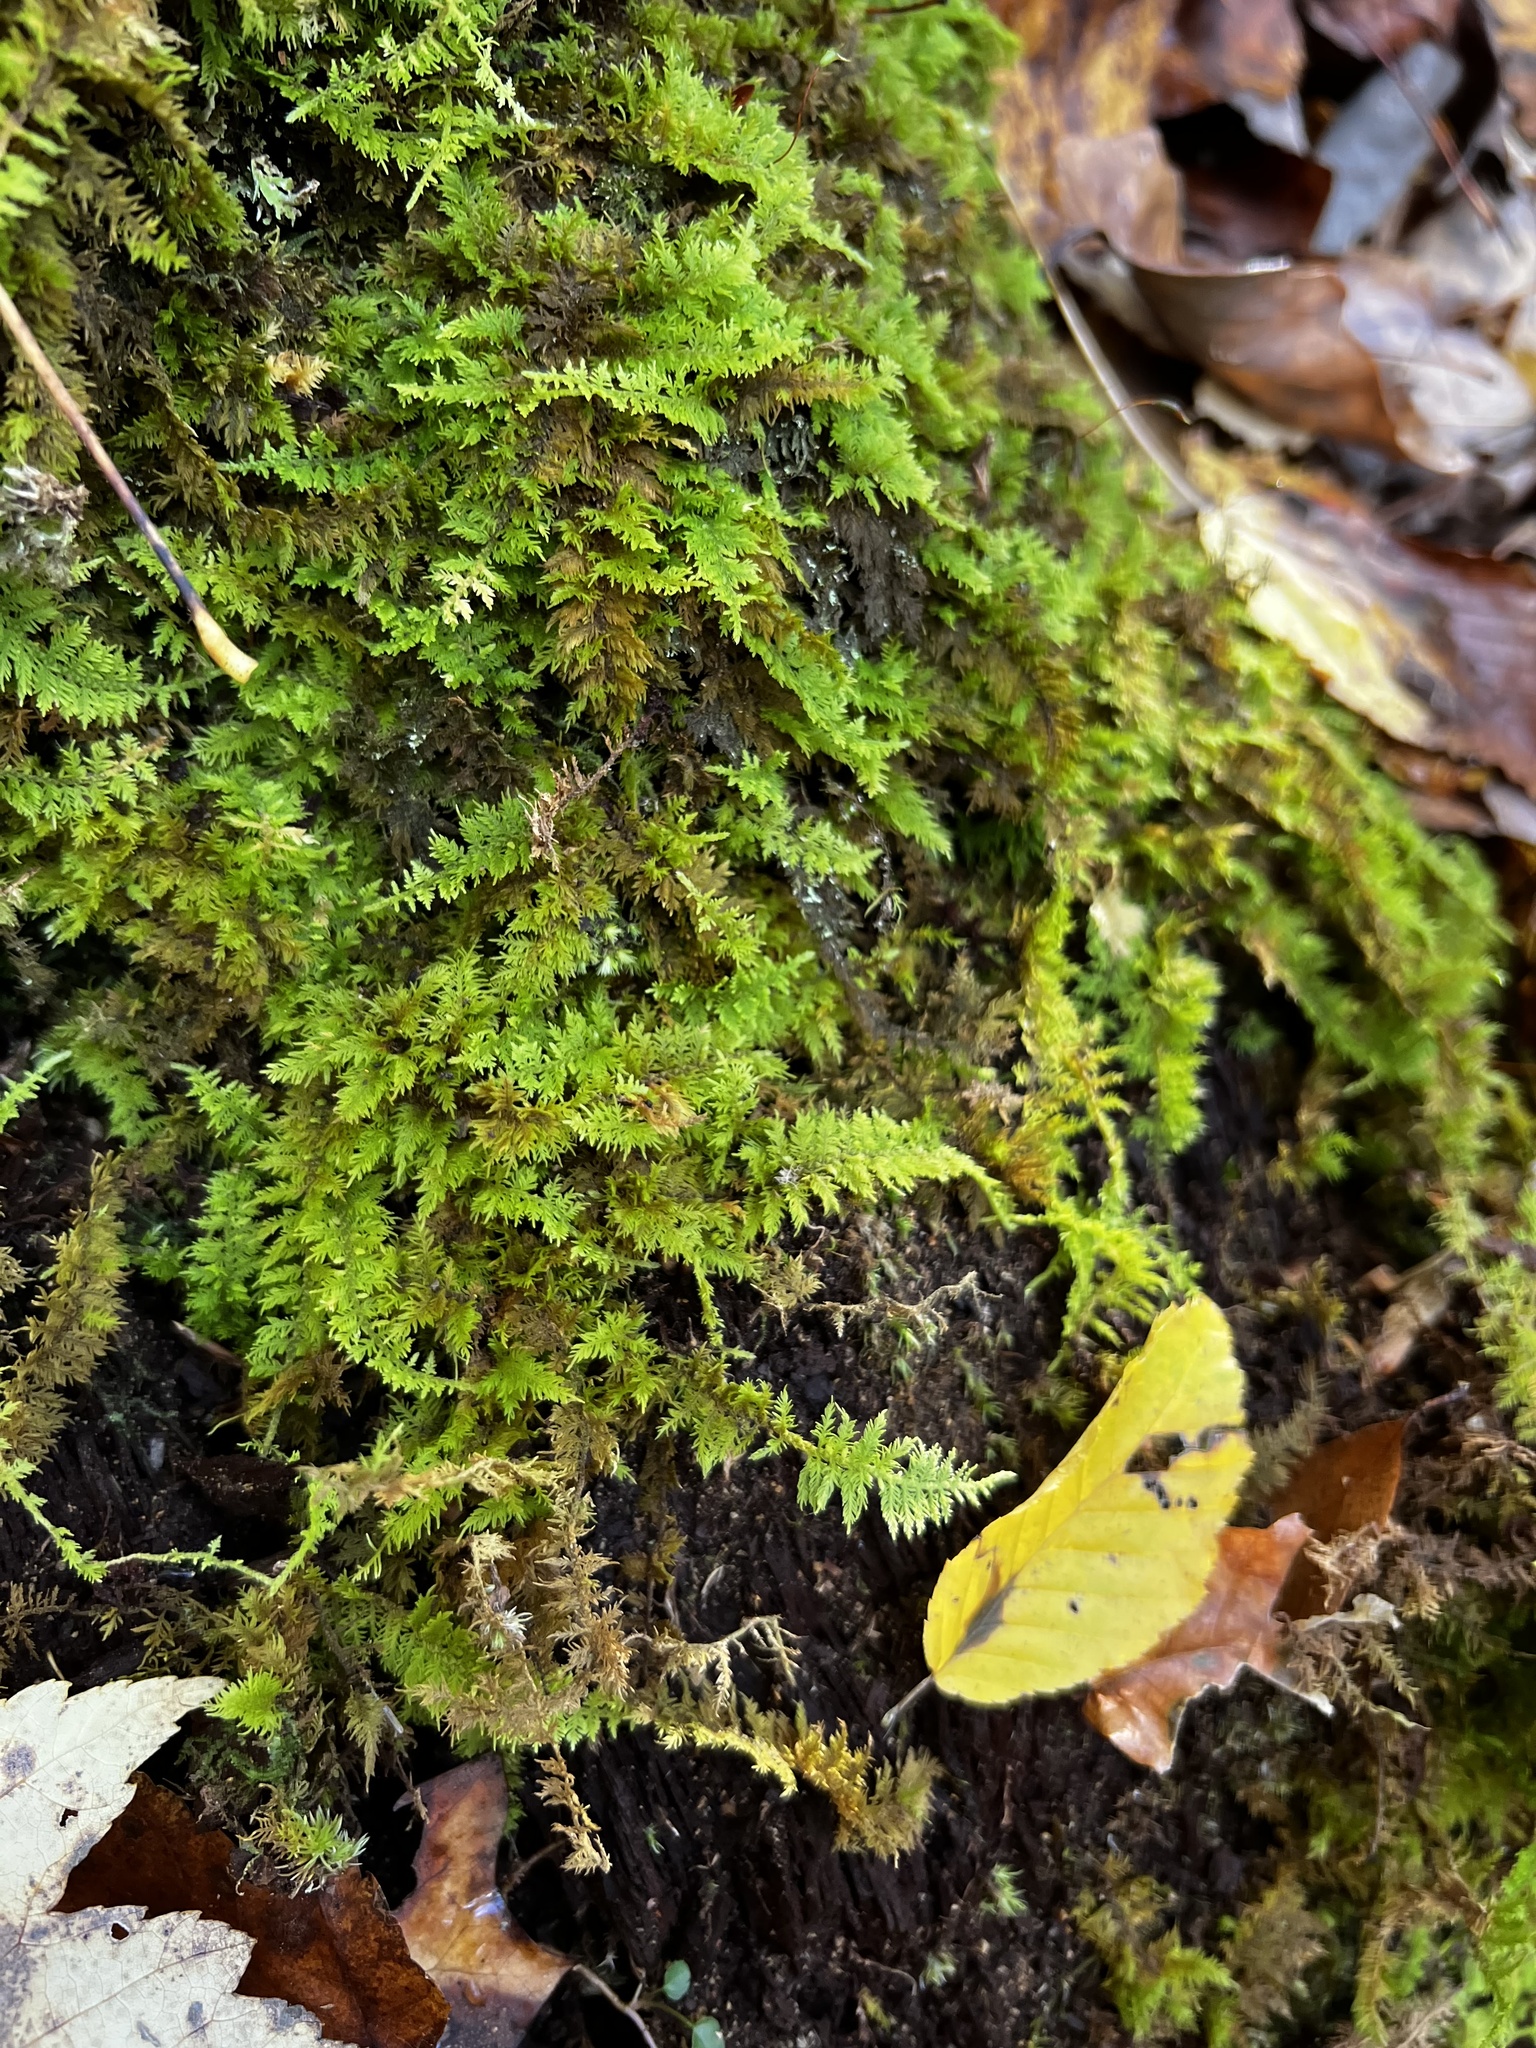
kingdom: Plantae
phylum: Bryophyta
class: Bryopsida
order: Hypnales
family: Thuidiaceae
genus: Thuidium
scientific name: Thuidium delicatulum
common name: Delicate fern moss
